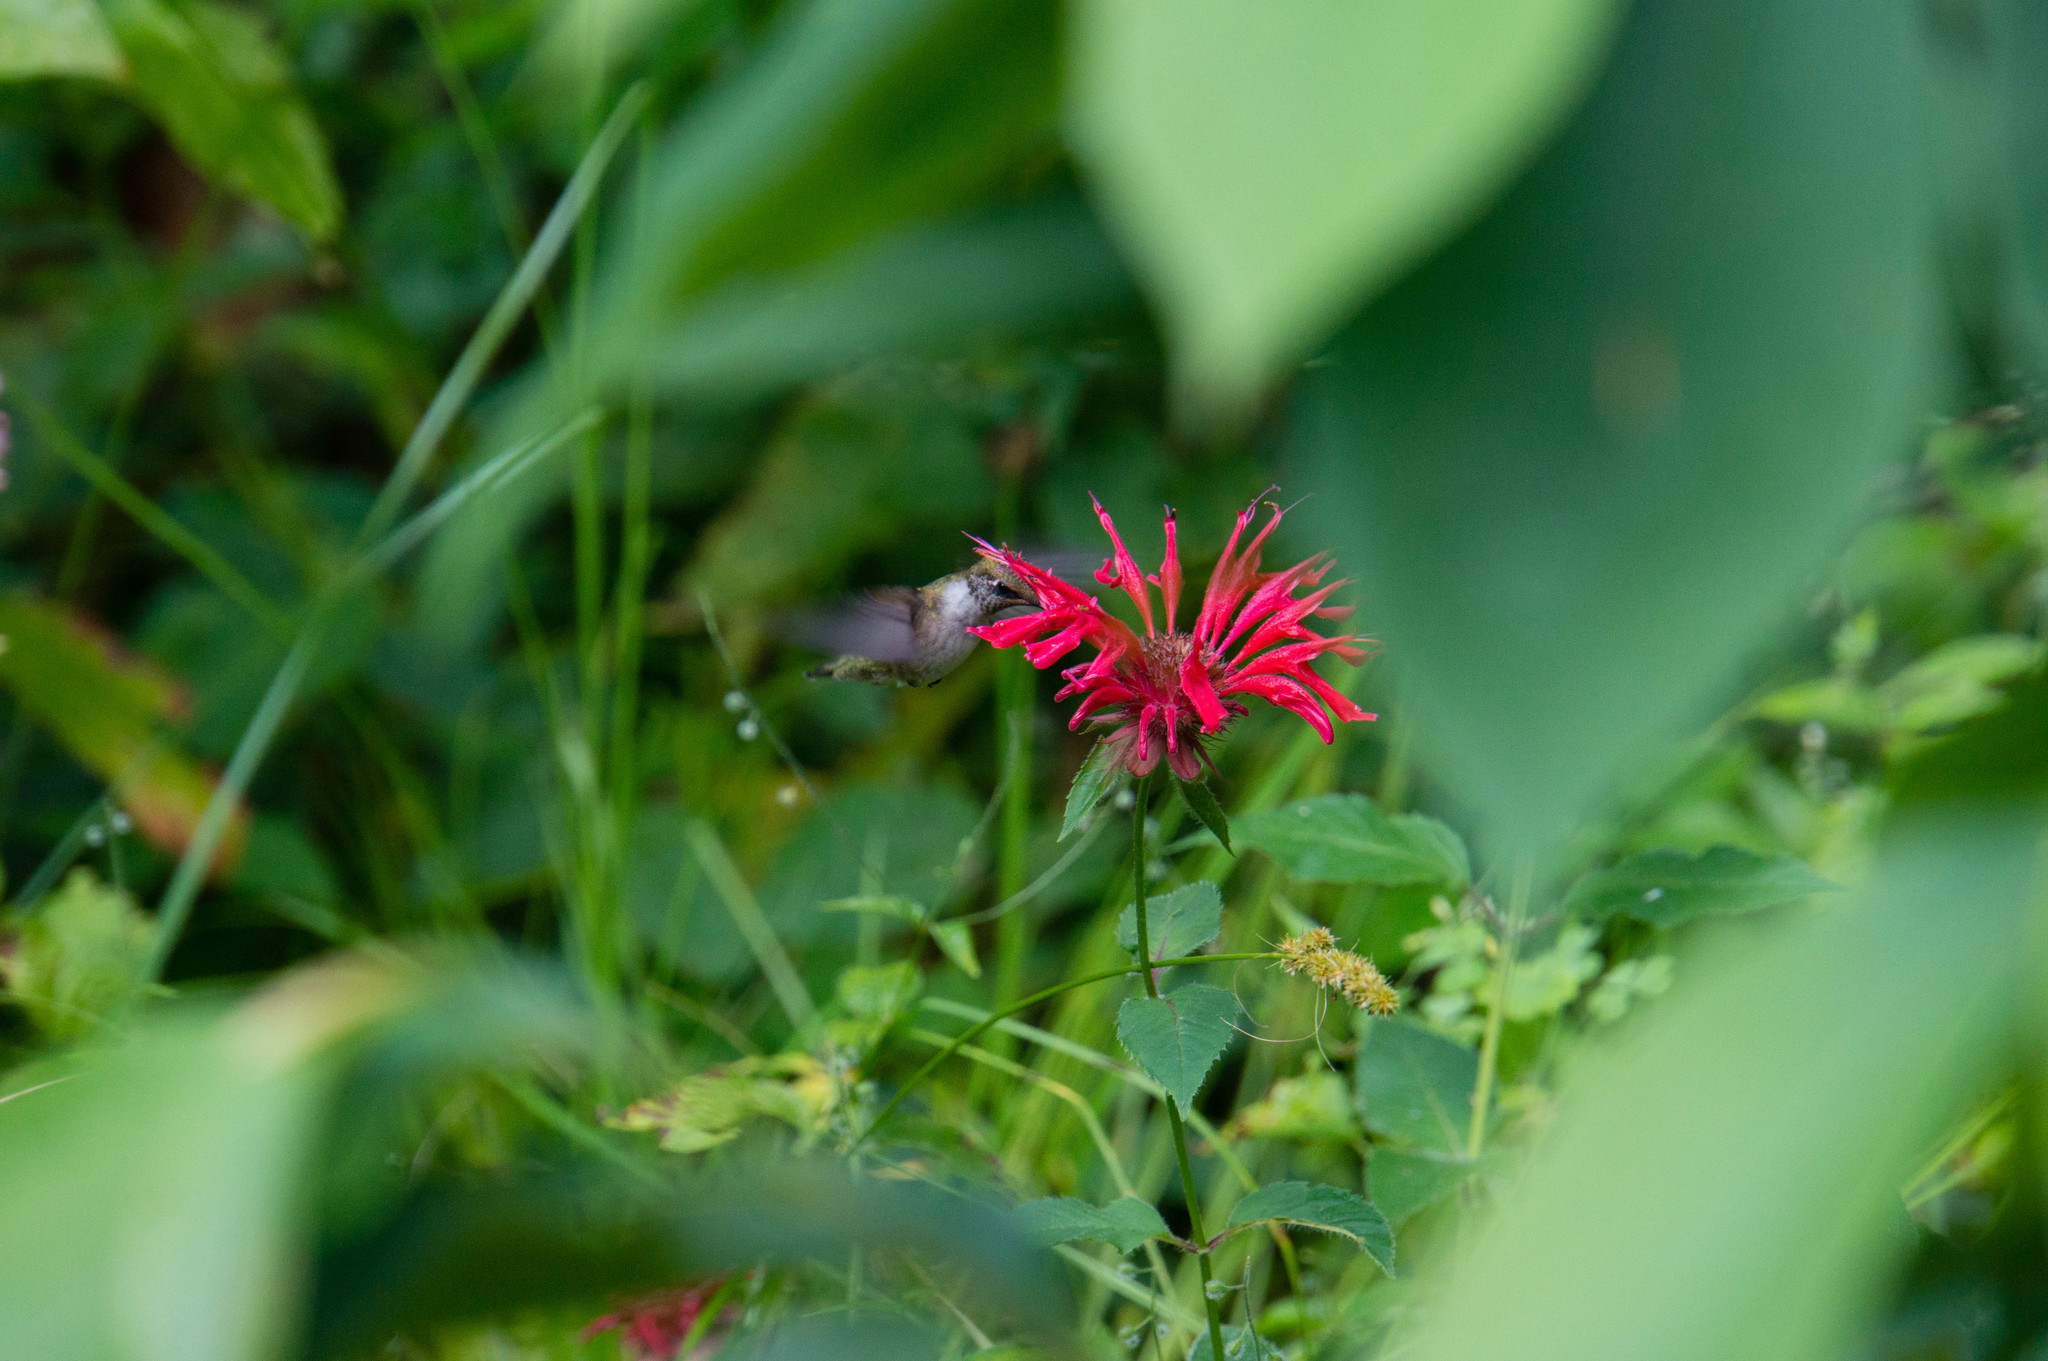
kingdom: Animalia
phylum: Chordata
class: Aves
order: Apodiformes
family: Trochilidae
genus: Archilochus
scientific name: Archilochus colubris
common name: Ruby-throated hummingbird
